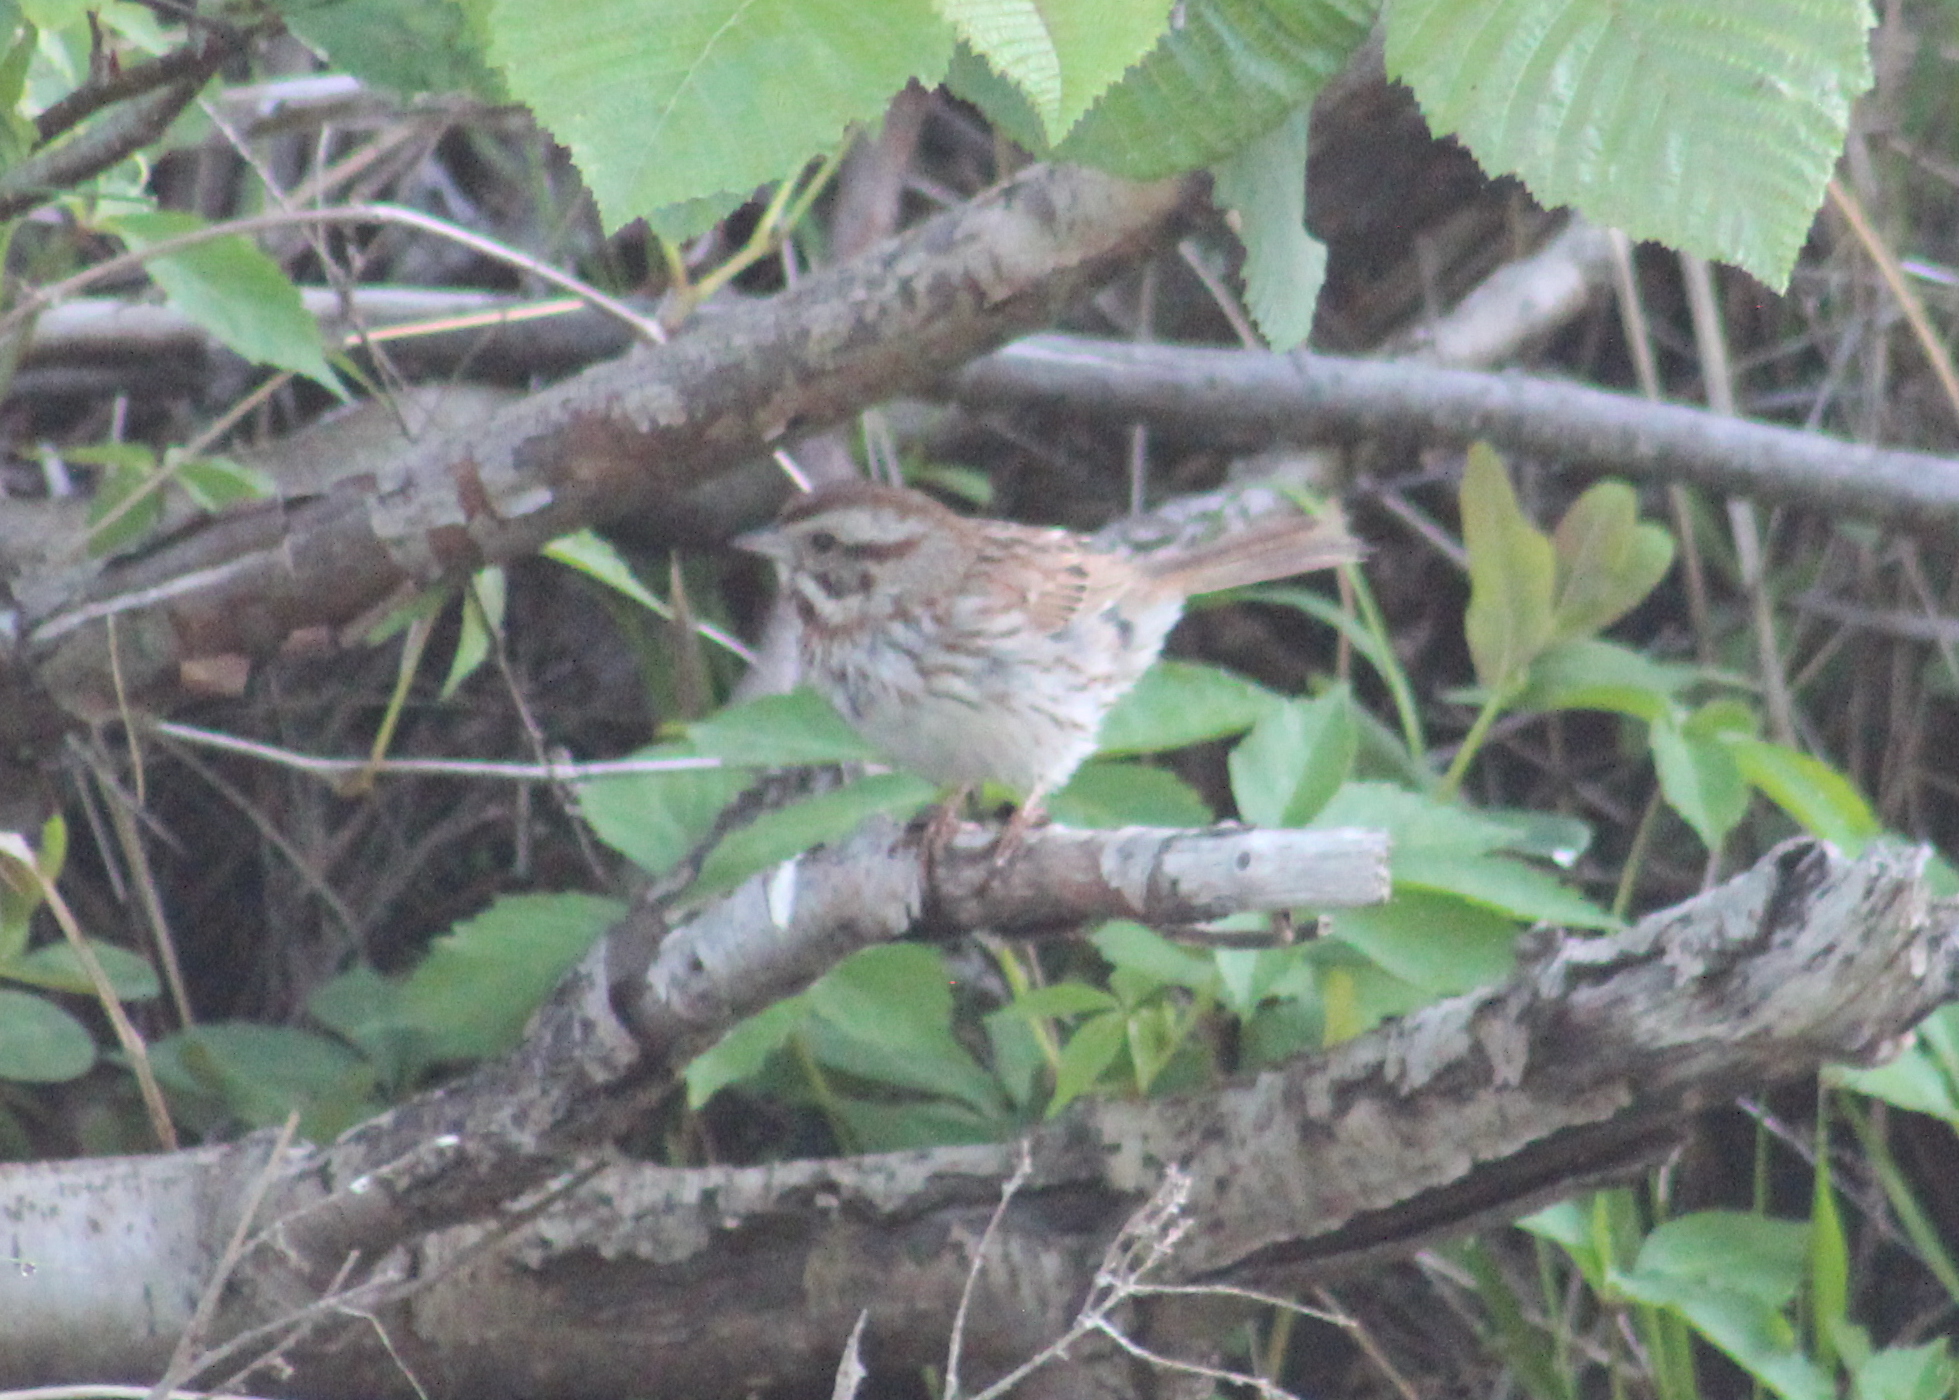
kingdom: Animalia
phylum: Chordata
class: Aves
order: Passeriformes
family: Passerellidae
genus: Melospiza
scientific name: Melospiza melodia
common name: Song sparrow
